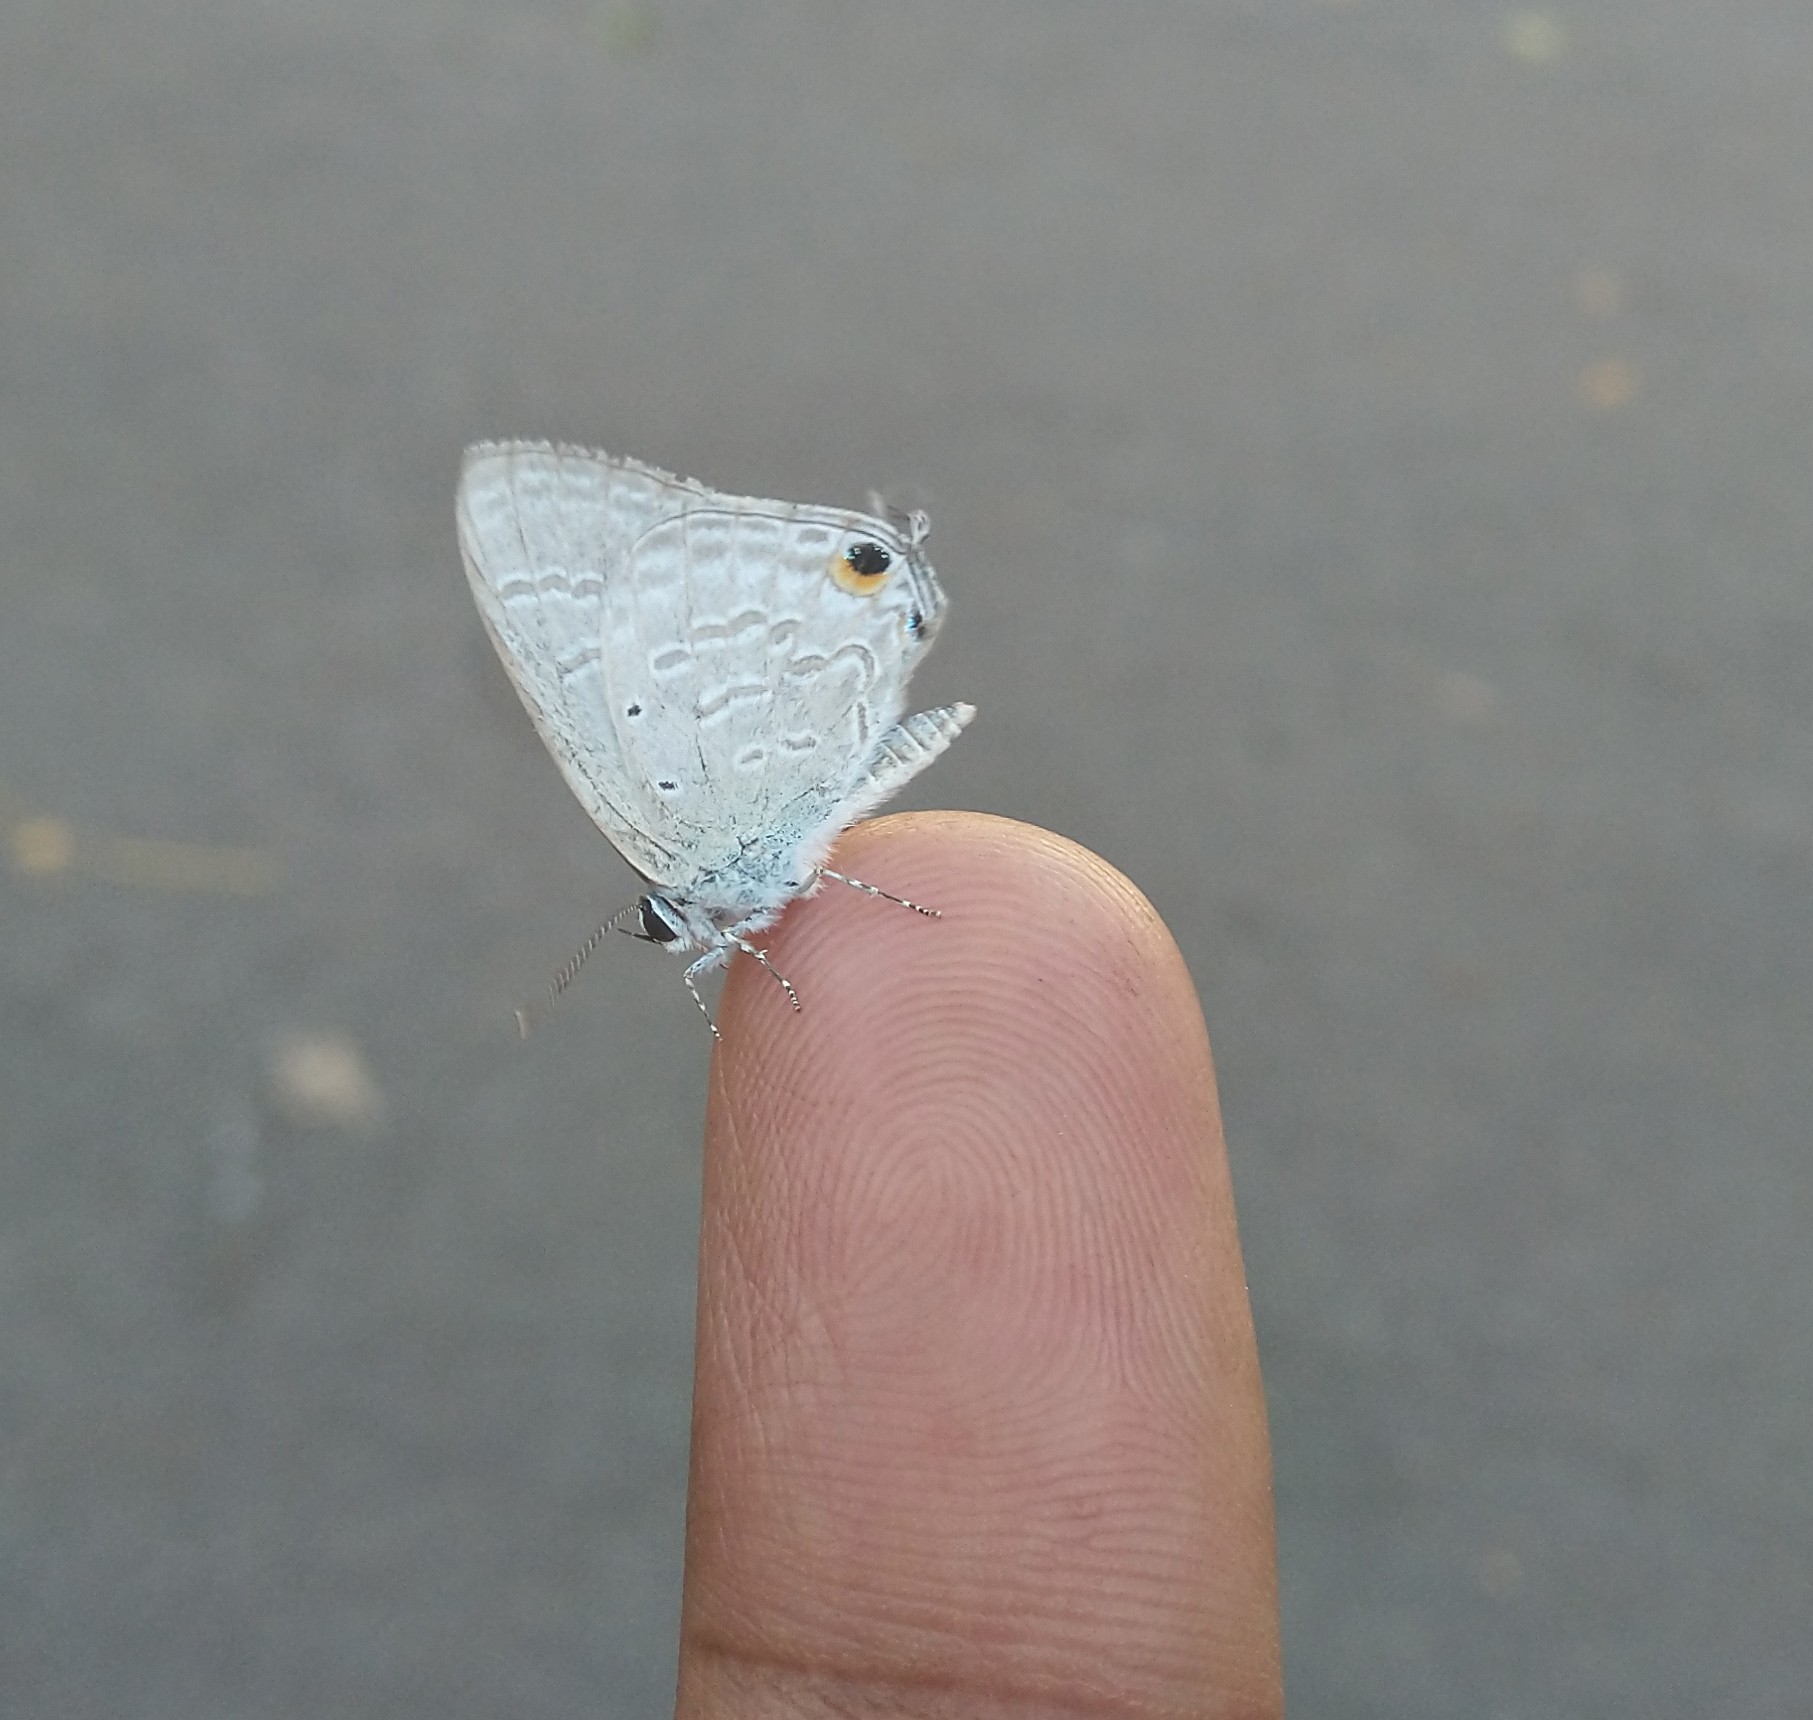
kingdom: Animalia
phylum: Arthropoda
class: Insecta
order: Lepidoptera
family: Lycaenidae
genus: Catochrysops
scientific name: Catochrysops strabo
